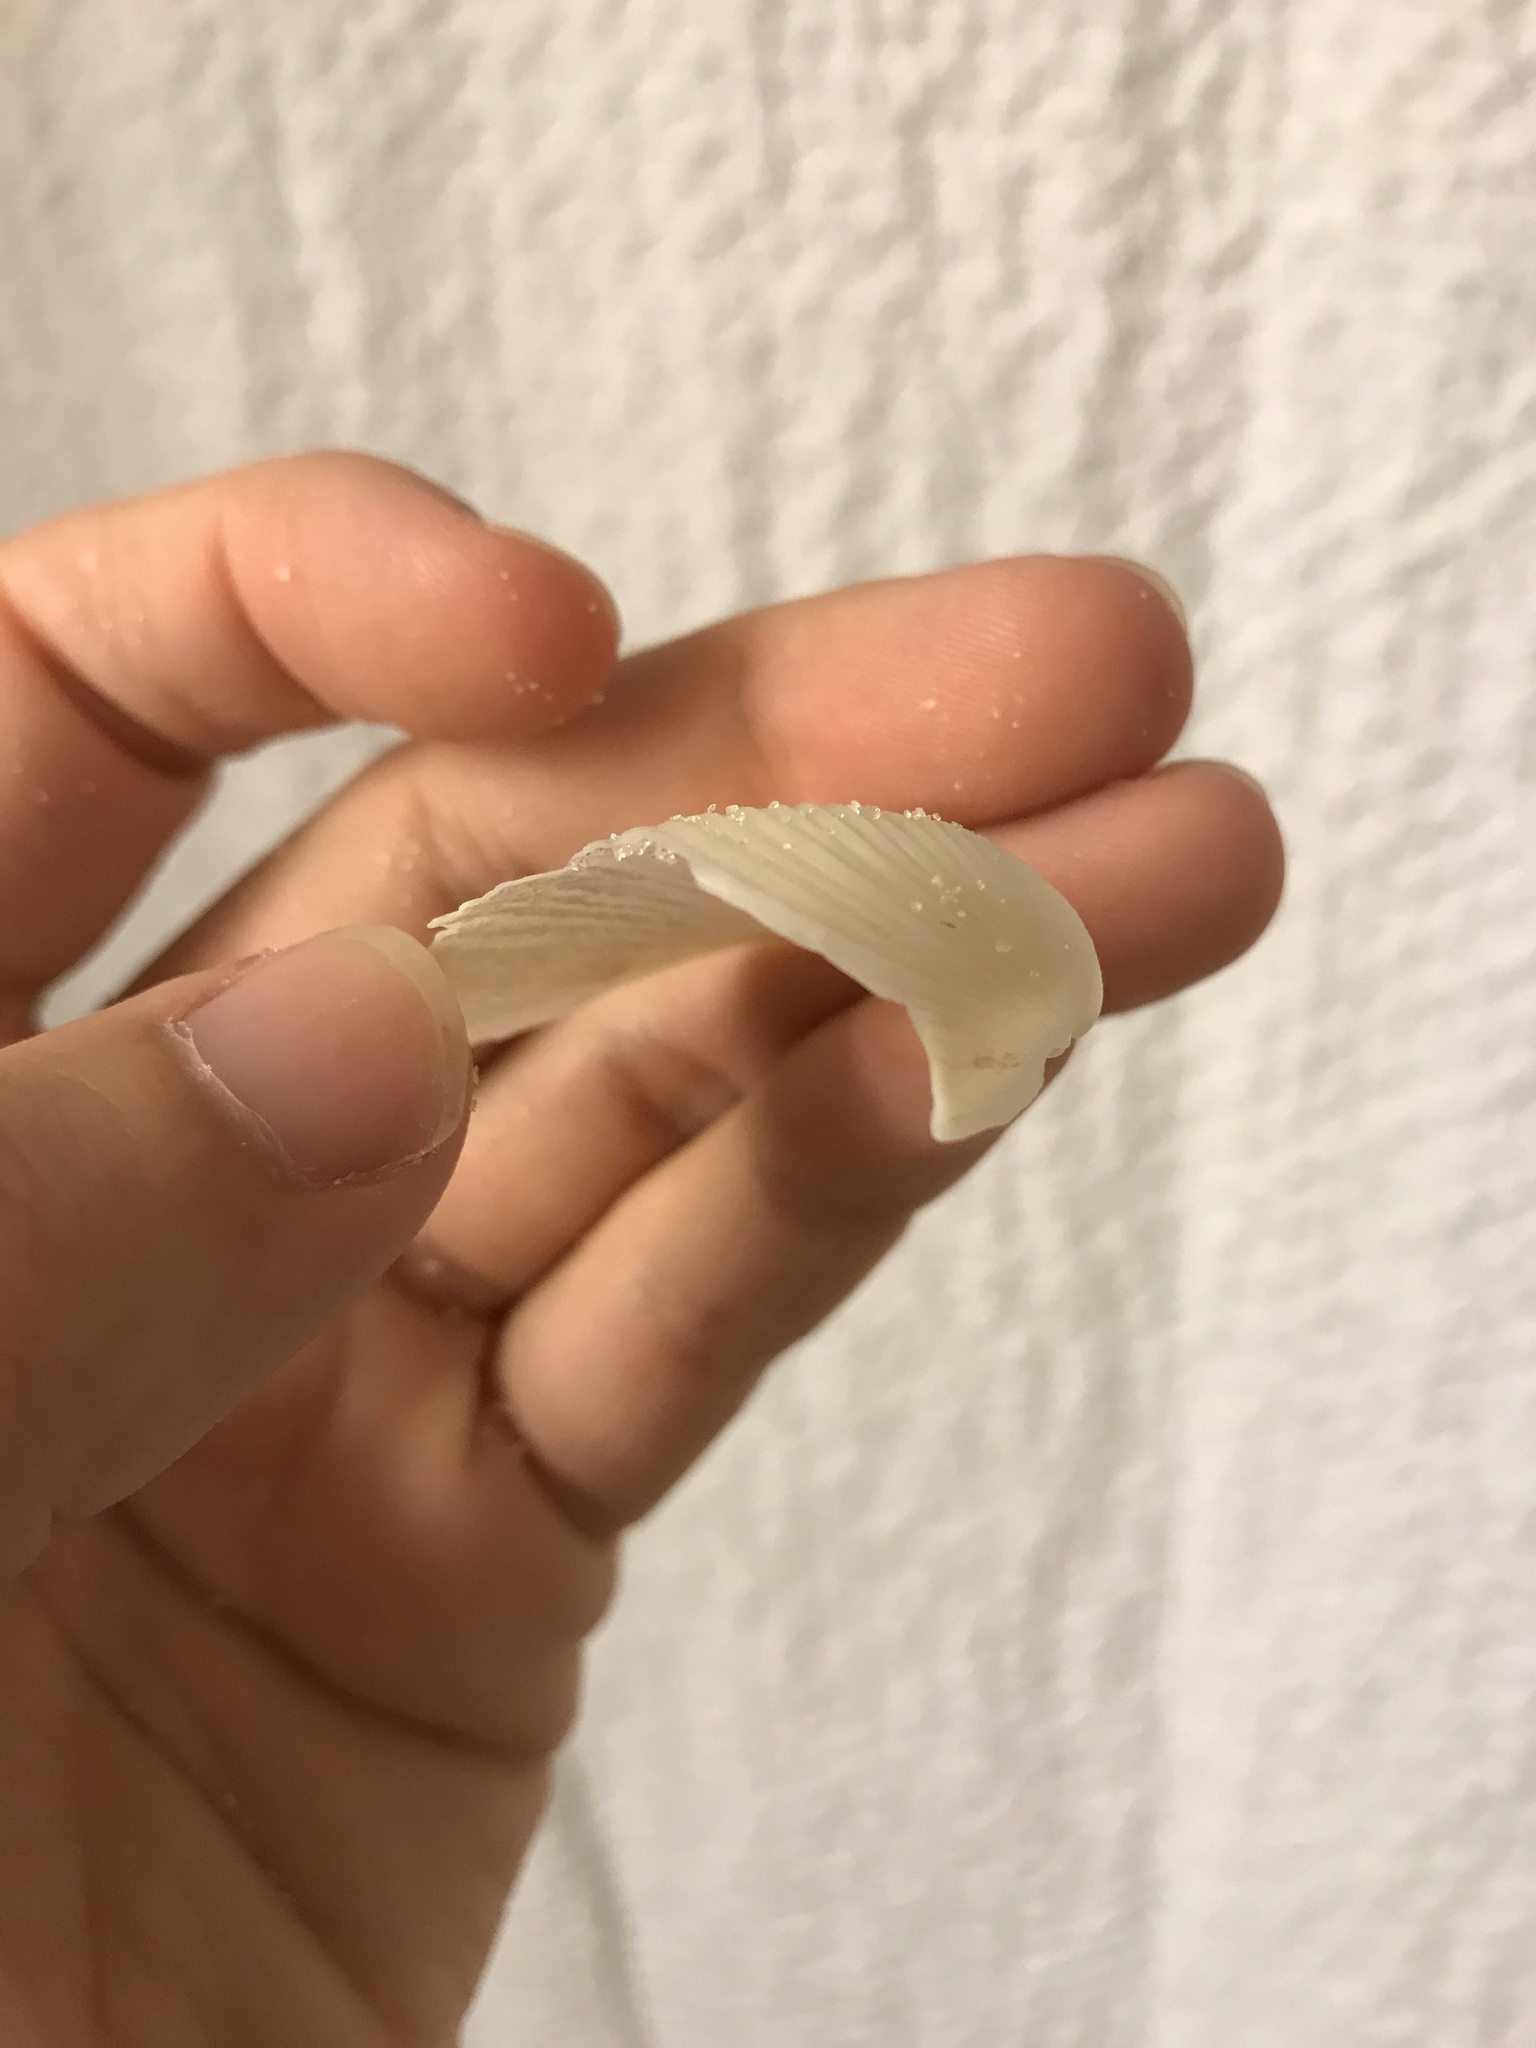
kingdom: Animalia
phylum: Mollusca
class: Bivalvia
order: Venerida
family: Anatinellidae
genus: Raeta
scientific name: Raeta plicatella
